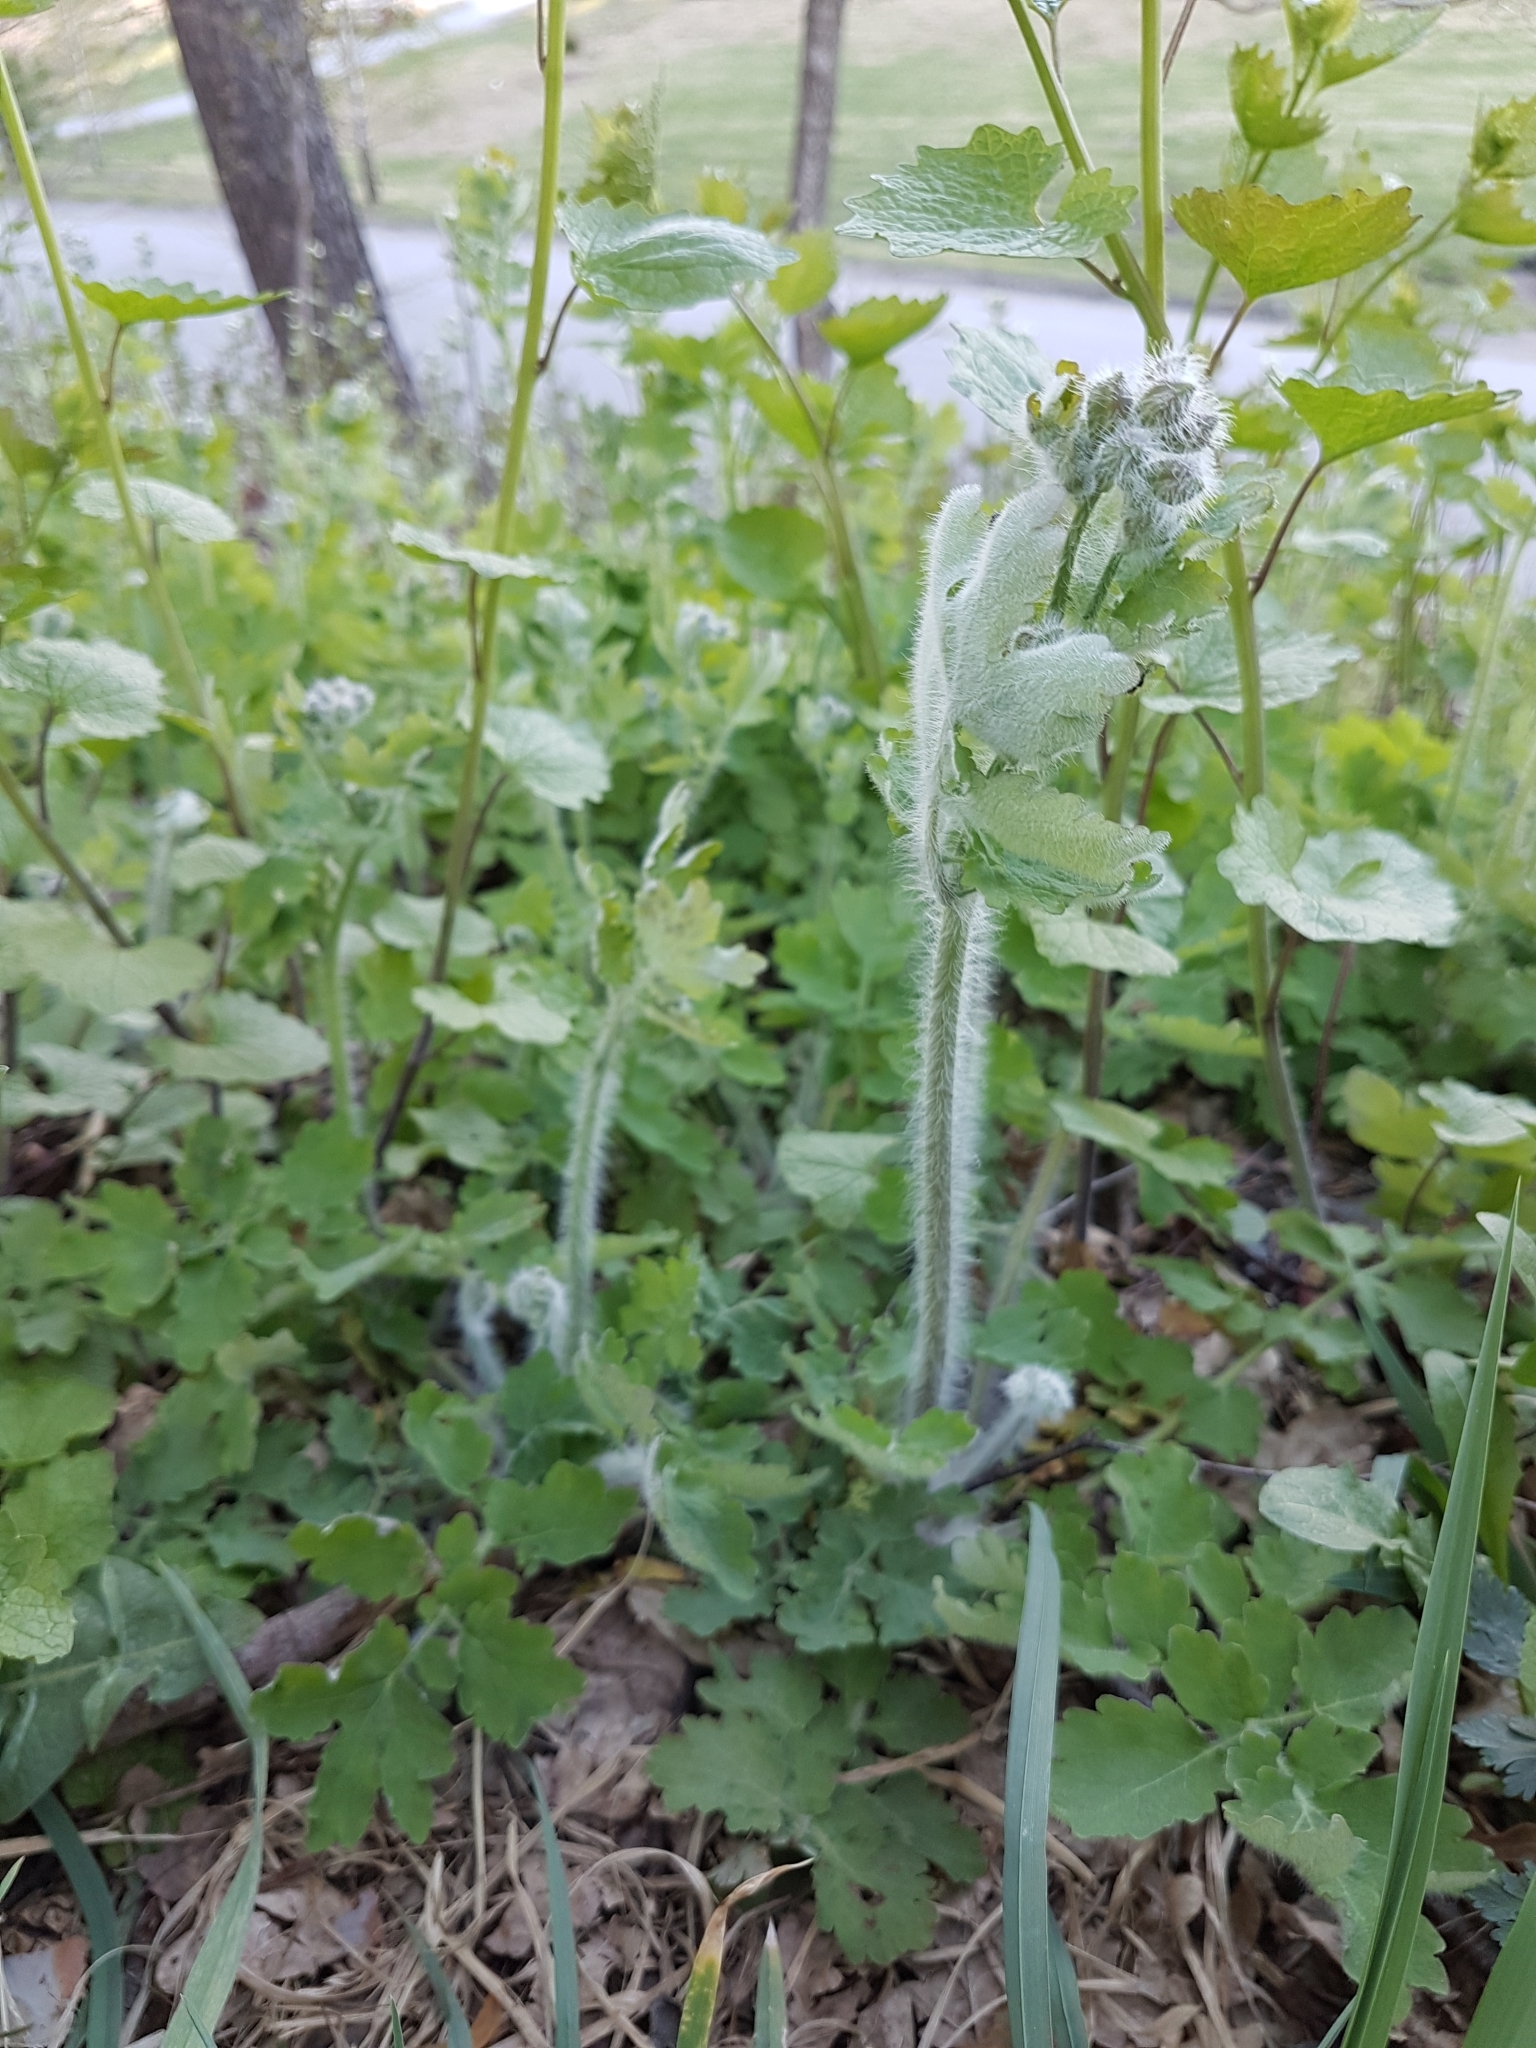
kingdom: Plantae
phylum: Tracheophyta
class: Magnoliopsida
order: Ranunculales
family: Papaveraceae
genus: Chelidonium
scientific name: Chelidonium majus
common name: Greater celandine
